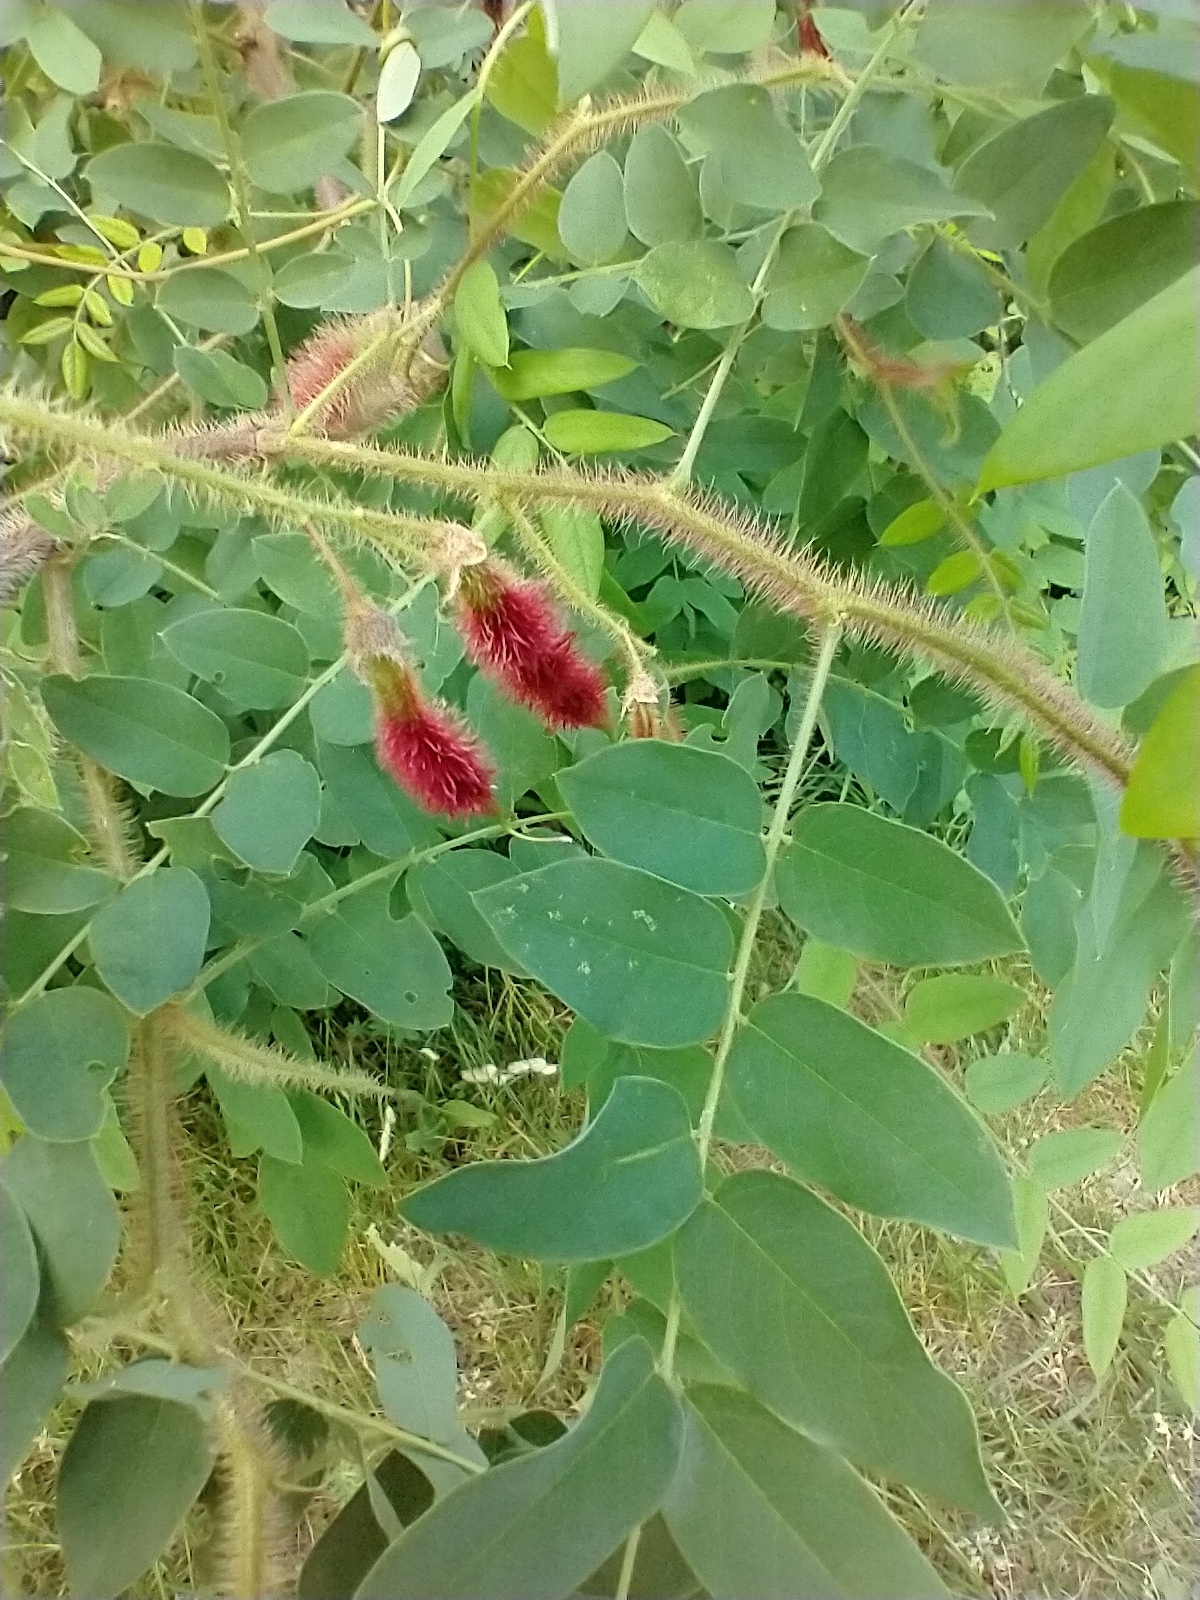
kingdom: Plantae
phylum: Tracheophyta
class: Magnoliopsida
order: Fabales
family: Fabaceae
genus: Robinia
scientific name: Robinia hispida
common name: Bristly locust
